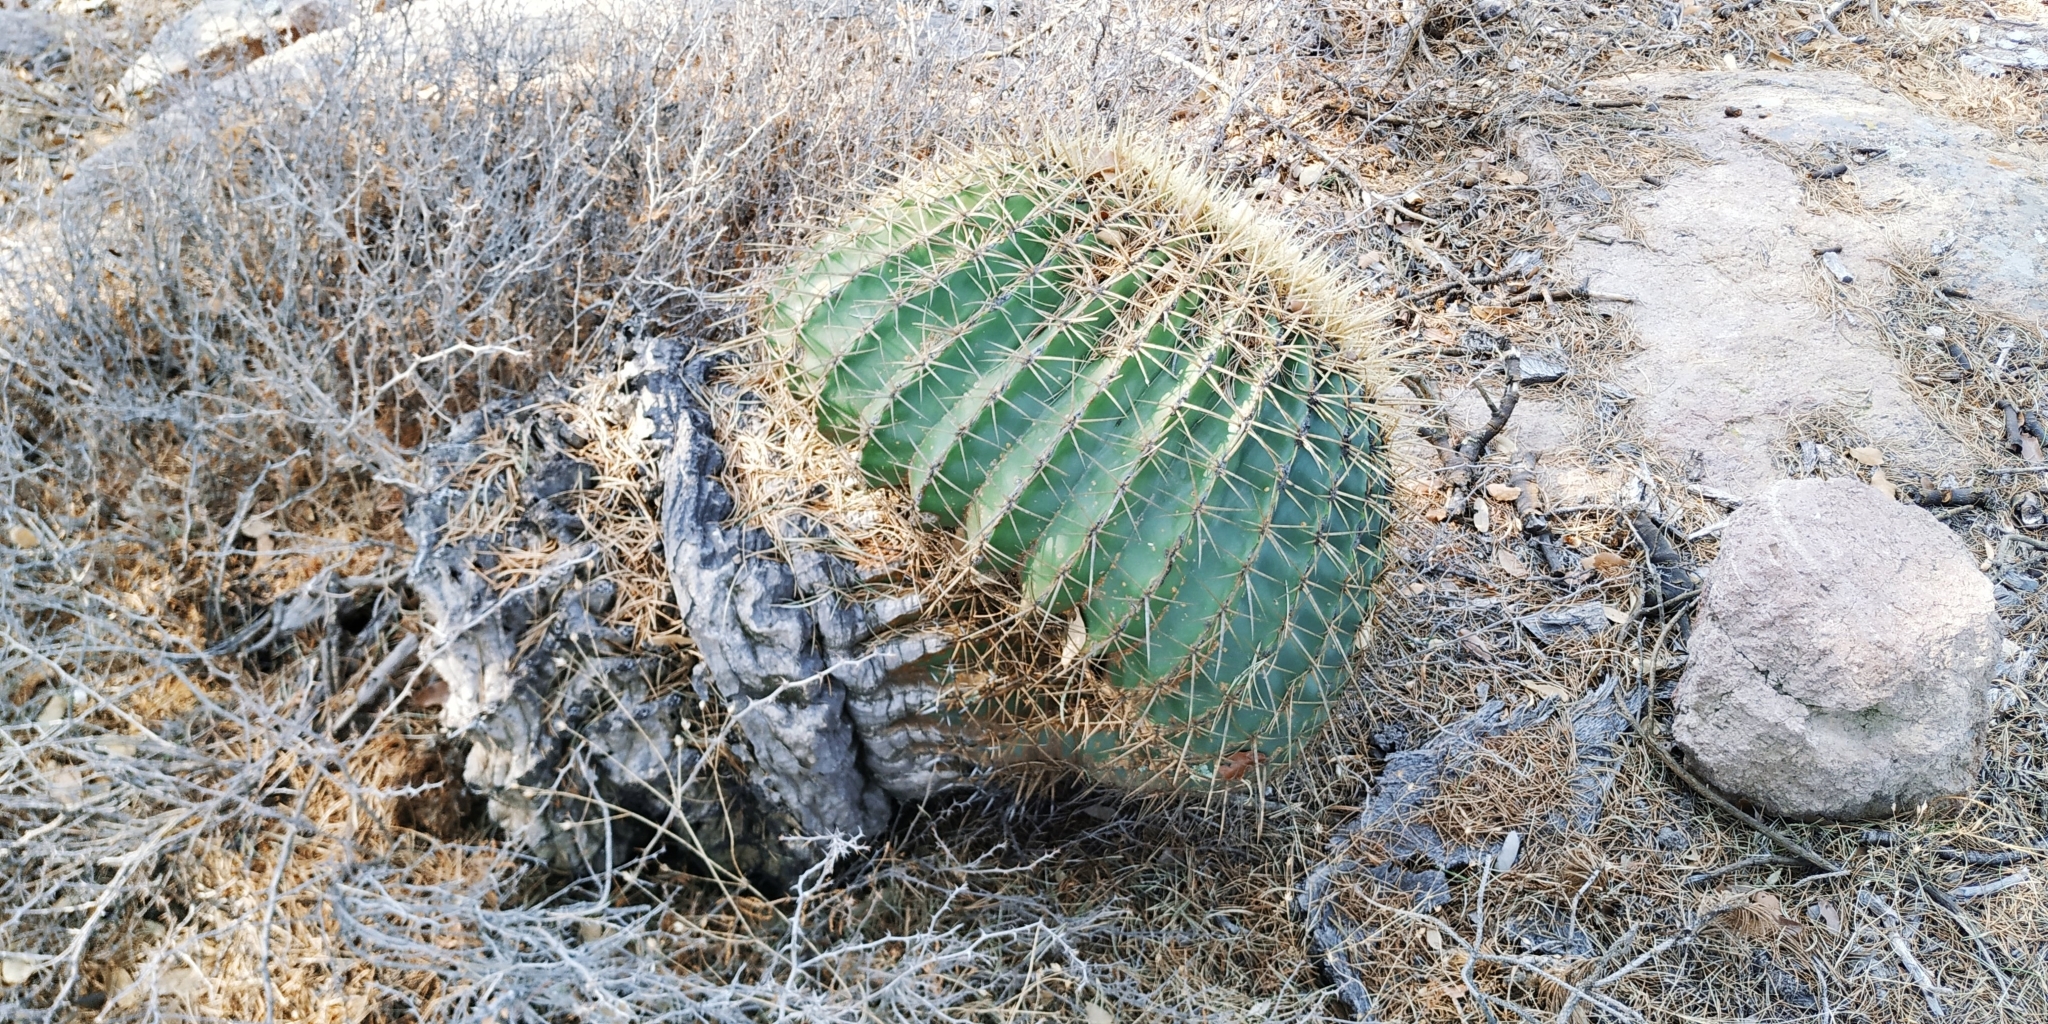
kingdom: Plantae
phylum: Tracheophyta
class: Magnoliopsida
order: Caryophyllales
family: Cactaceae
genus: Bisnaga
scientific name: Bisnaga histrix
